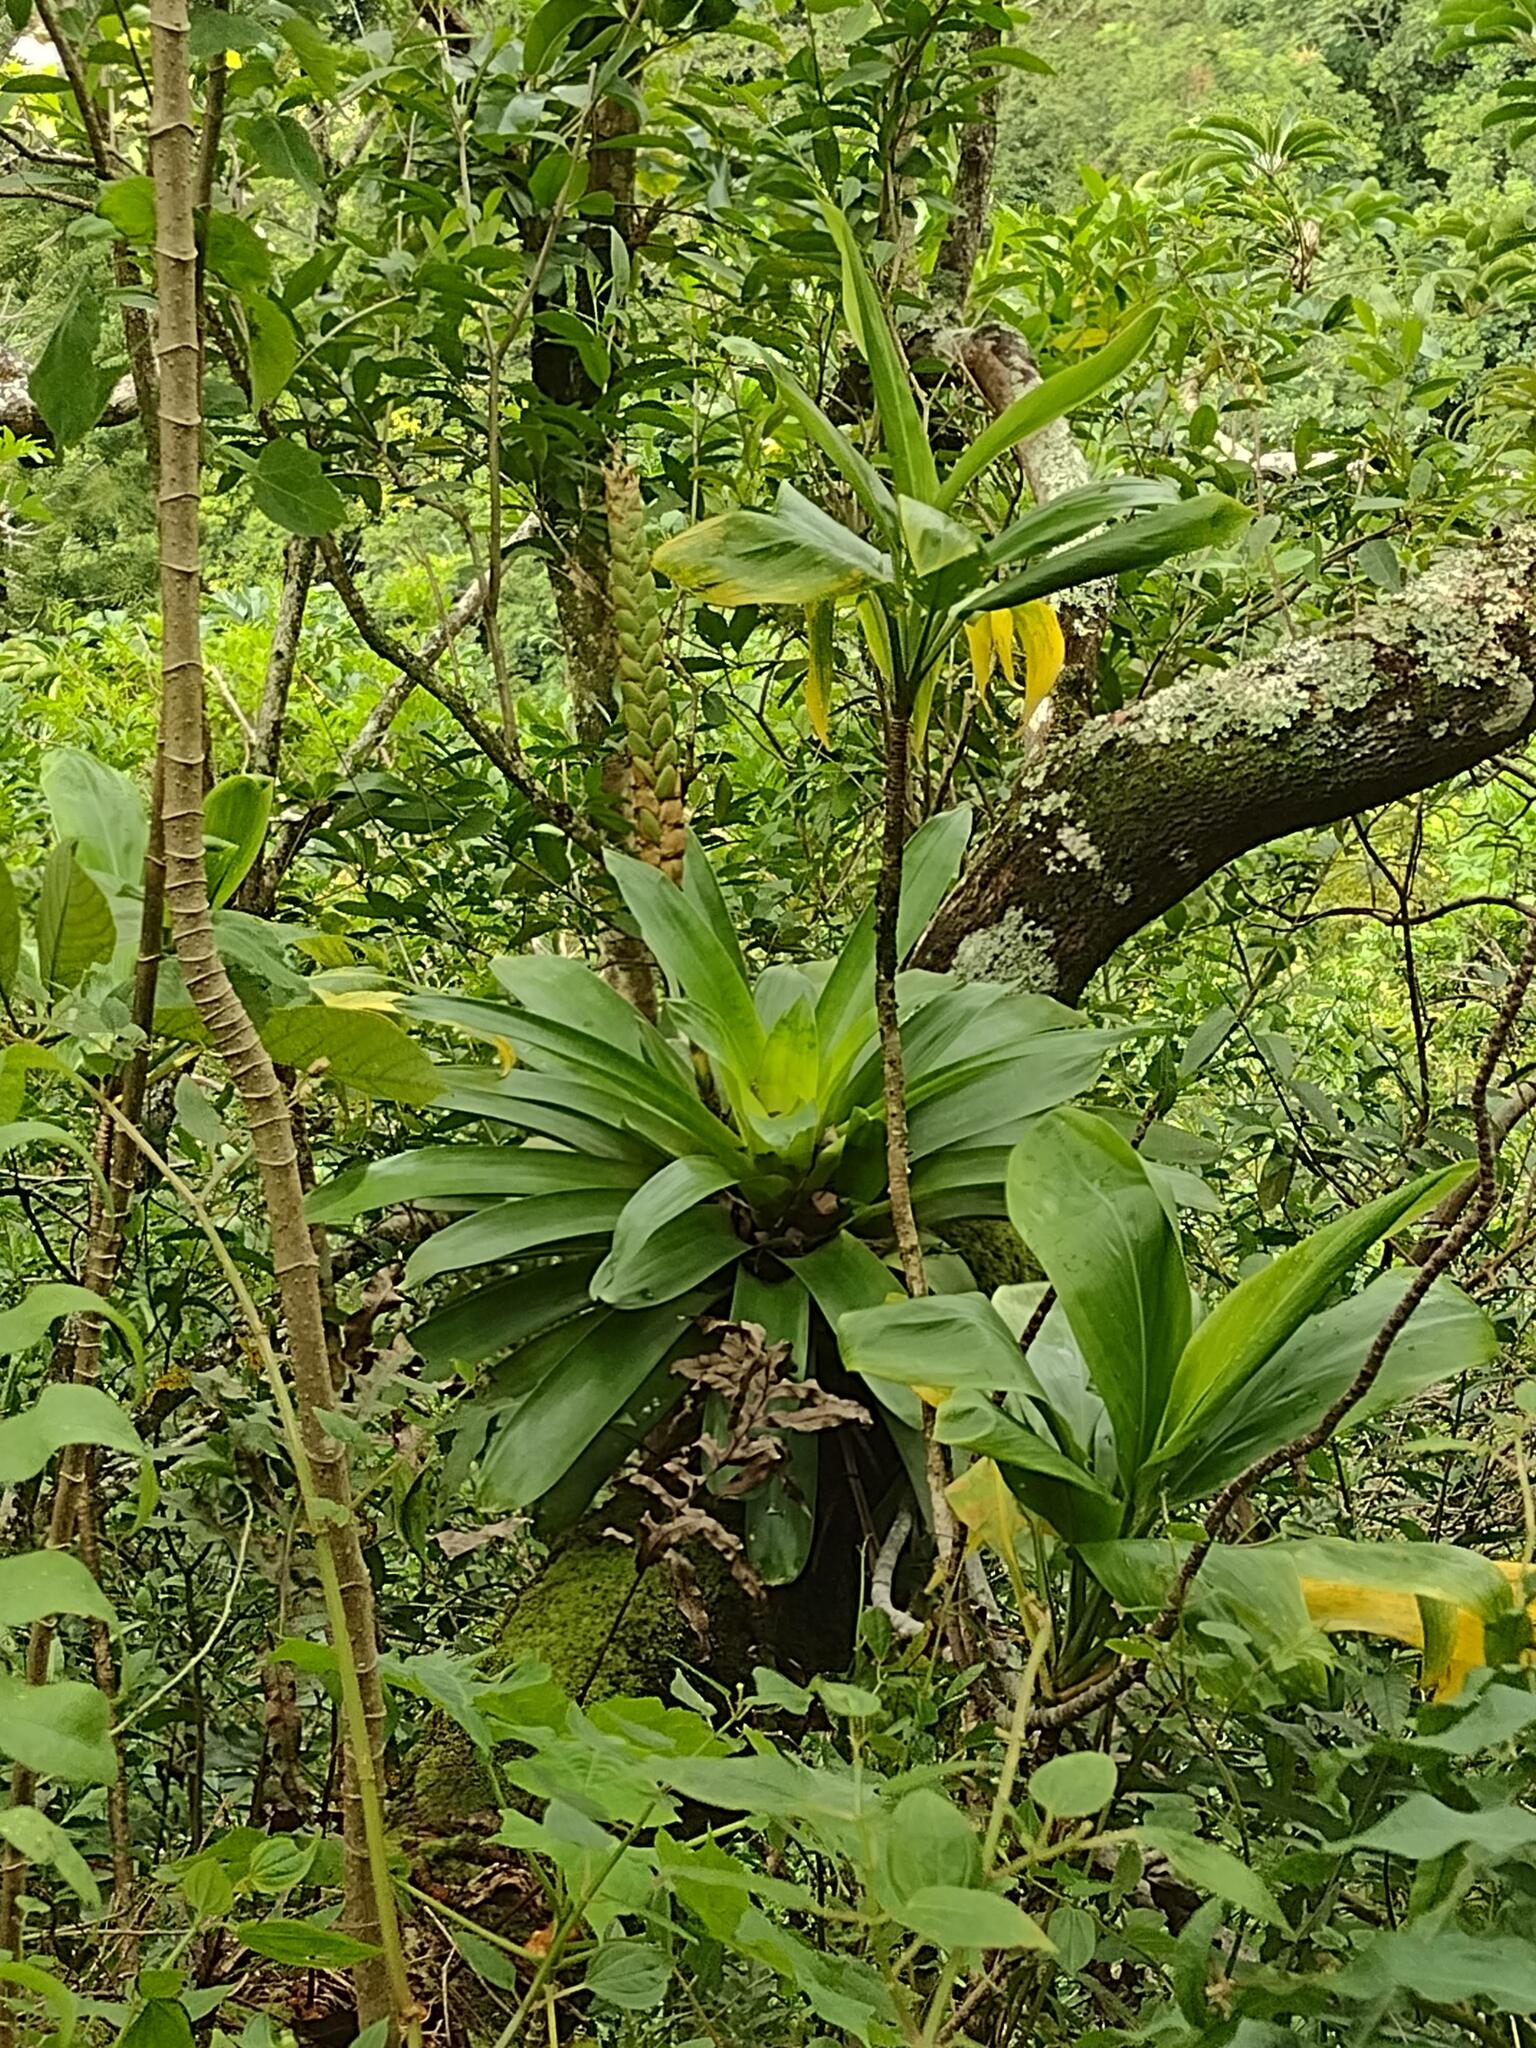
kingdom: Plantae
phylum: Tracheophyta
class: Liliopsida
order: Poales
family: Bromeliaceae
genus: Werauhia
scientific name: Werauhia gladioliflora
